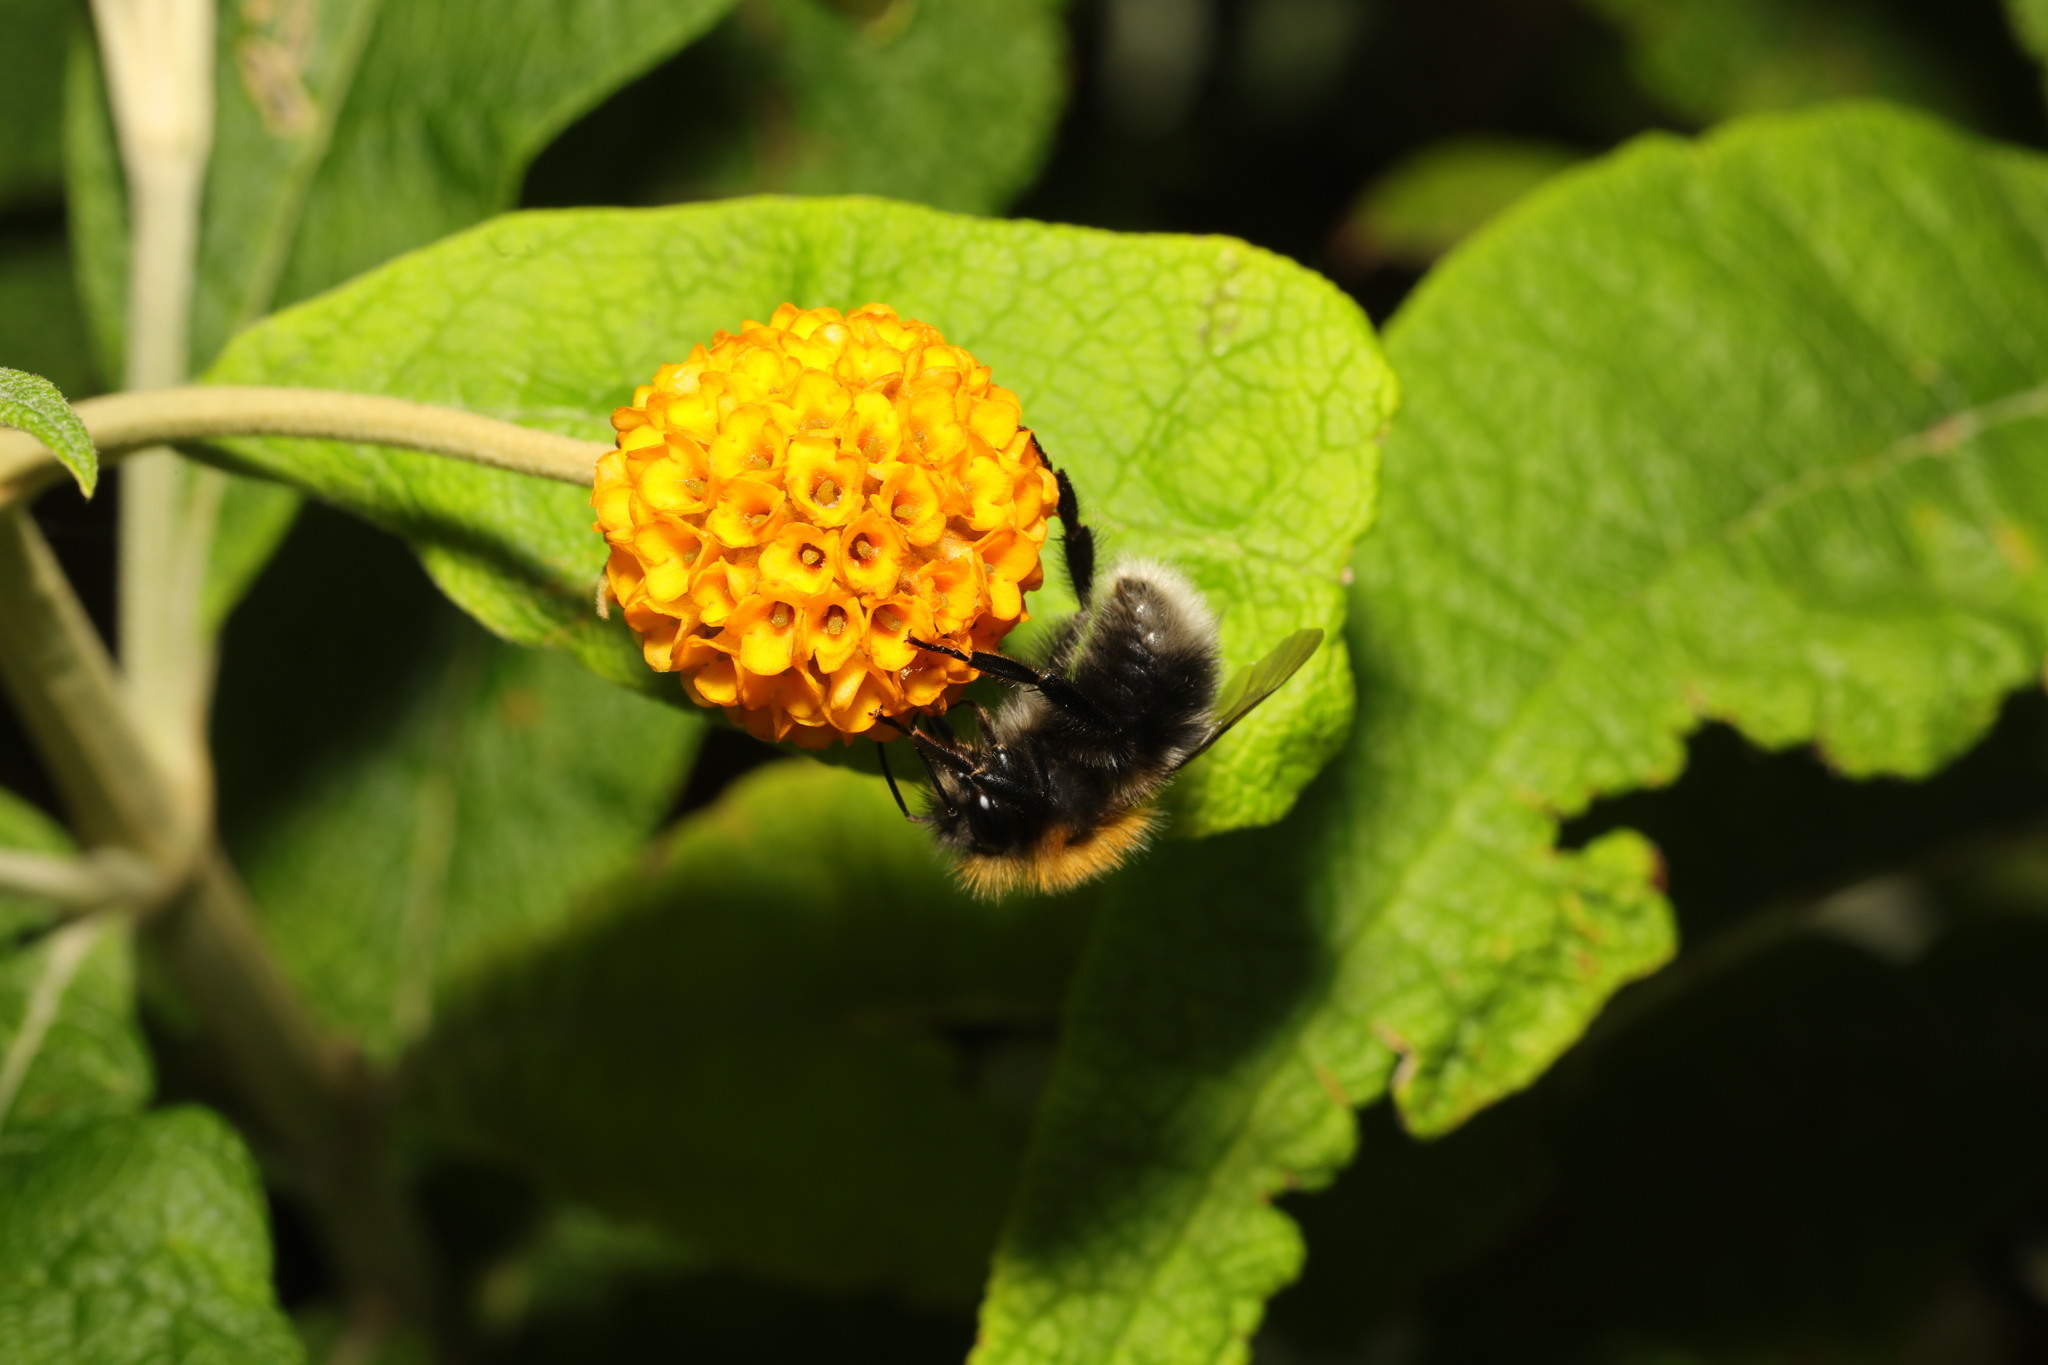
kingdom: Animalia
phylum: Arthropoda
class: Insecta
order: Hymenoptera
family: Apidae
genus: Bombus
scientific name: Bombus hypnorum
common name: New garden bumblebee
